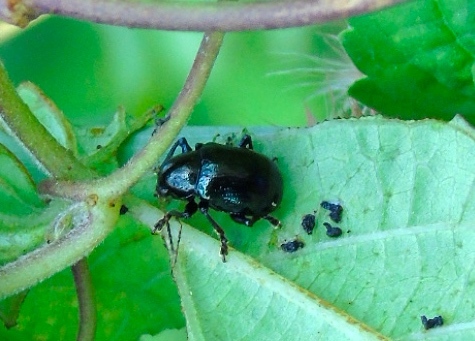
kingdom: Animalia
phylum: Arthropoda
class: Insecta
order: Coleoptera
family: Chrysomelidae
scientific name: Chrysomelidae
